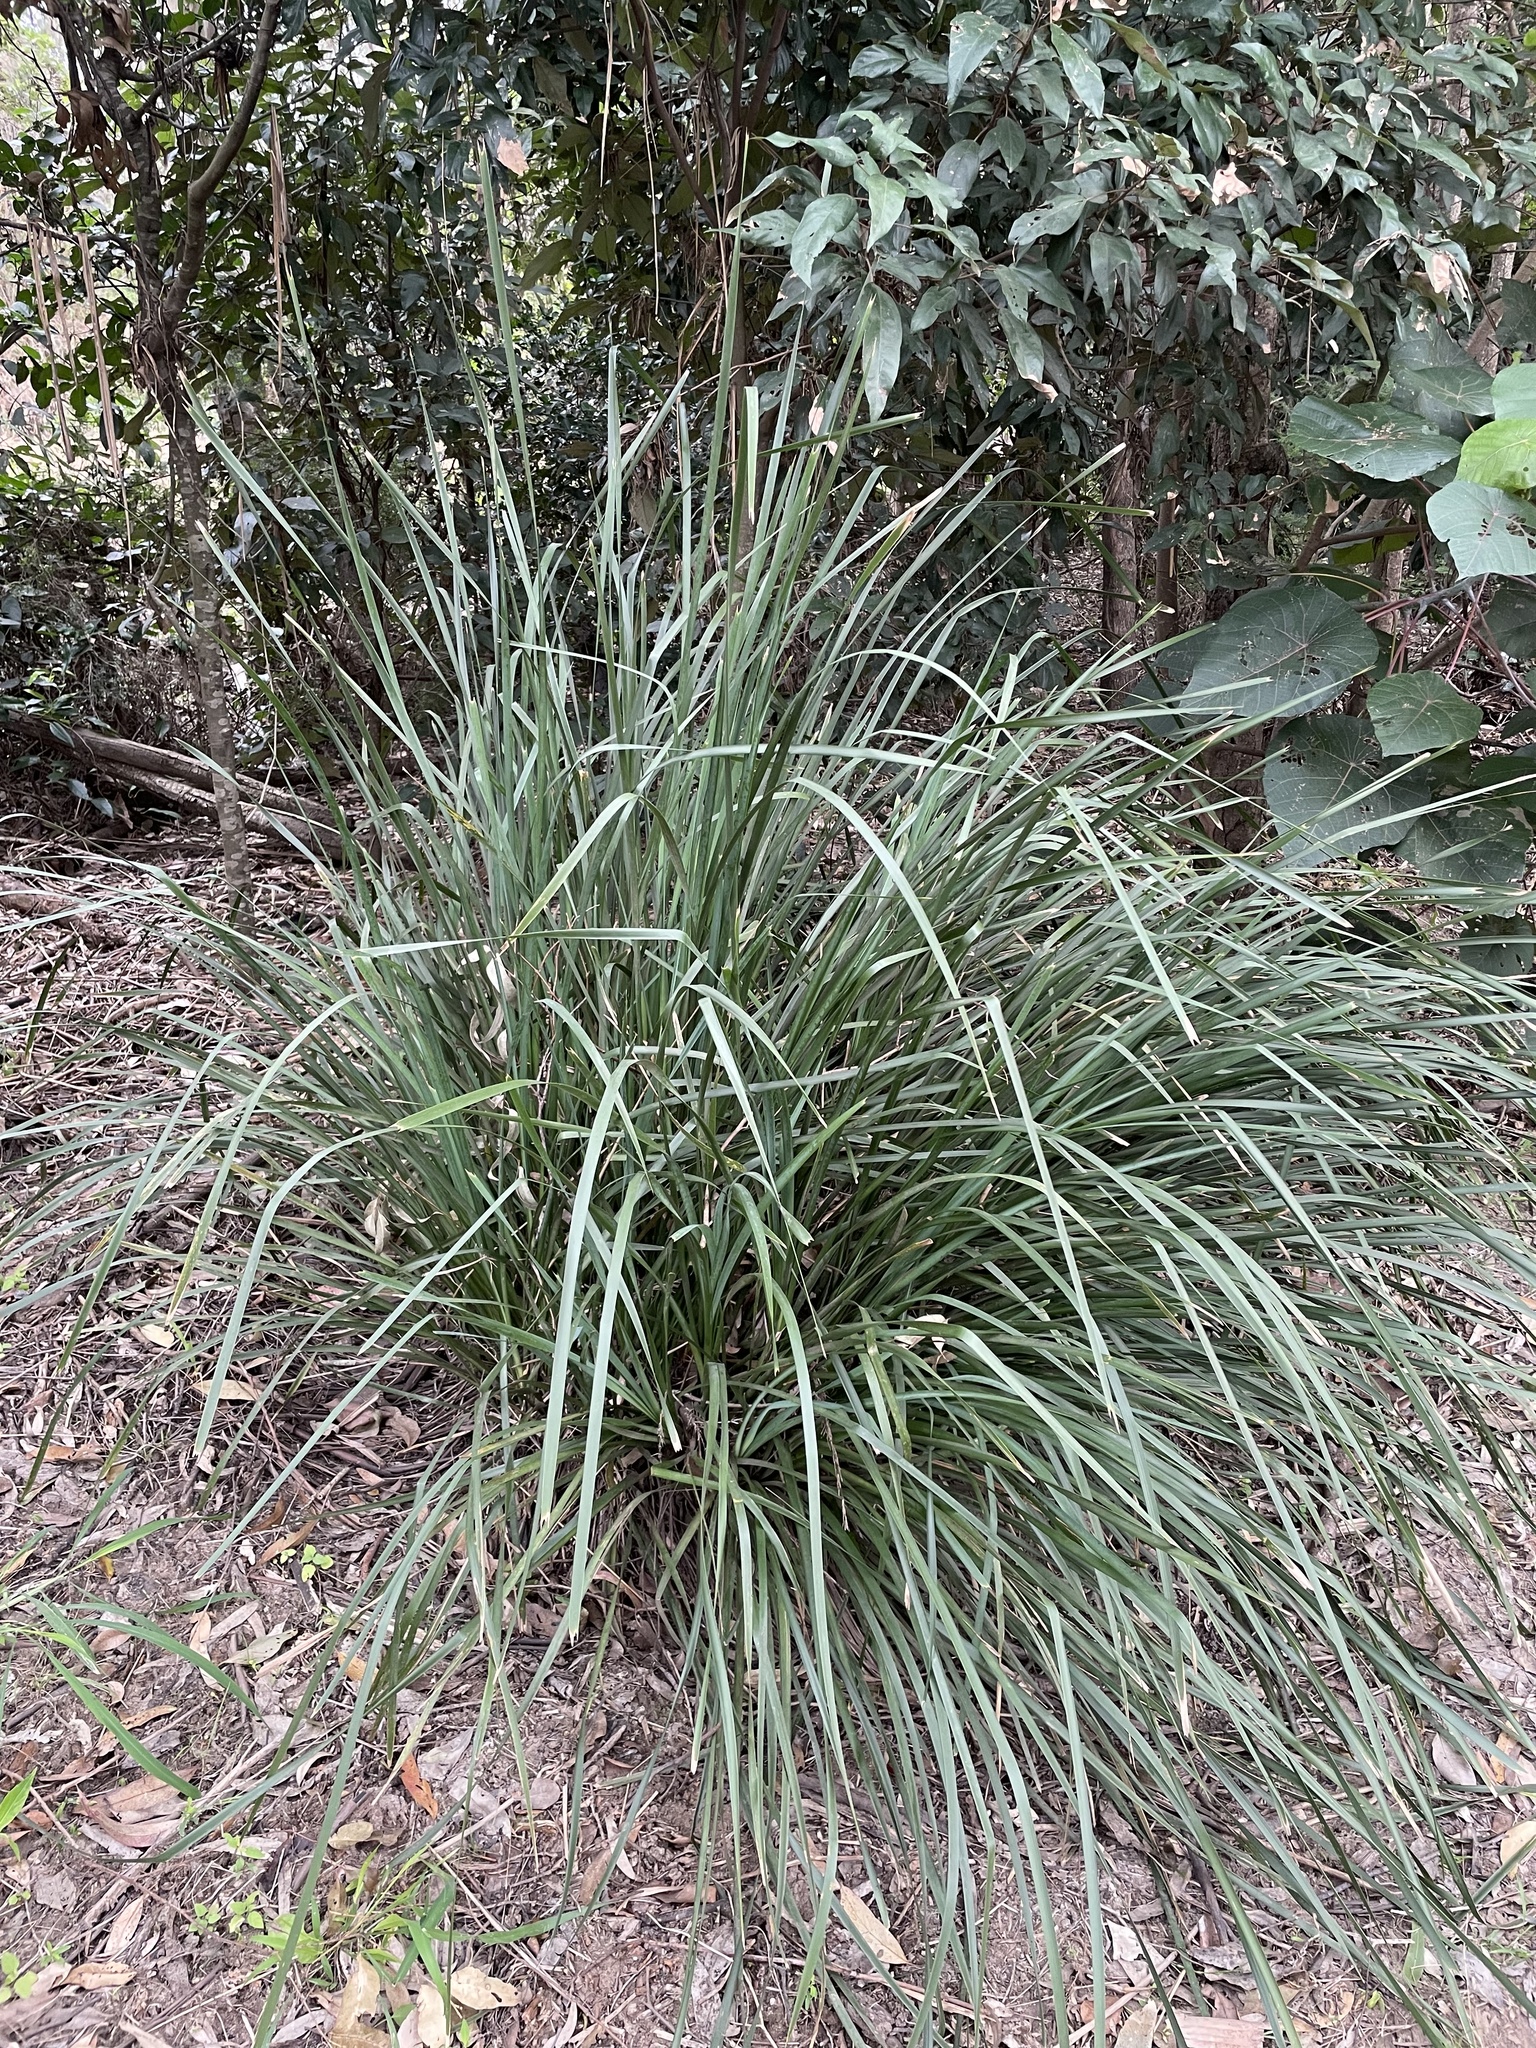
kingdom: Plantae
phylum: Tracheophyta
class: Liliopsida
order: Asparagales
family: Asparagaceae
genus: Lomandra
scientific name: Lomandra longifolia
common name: Longleaf mat-rush
